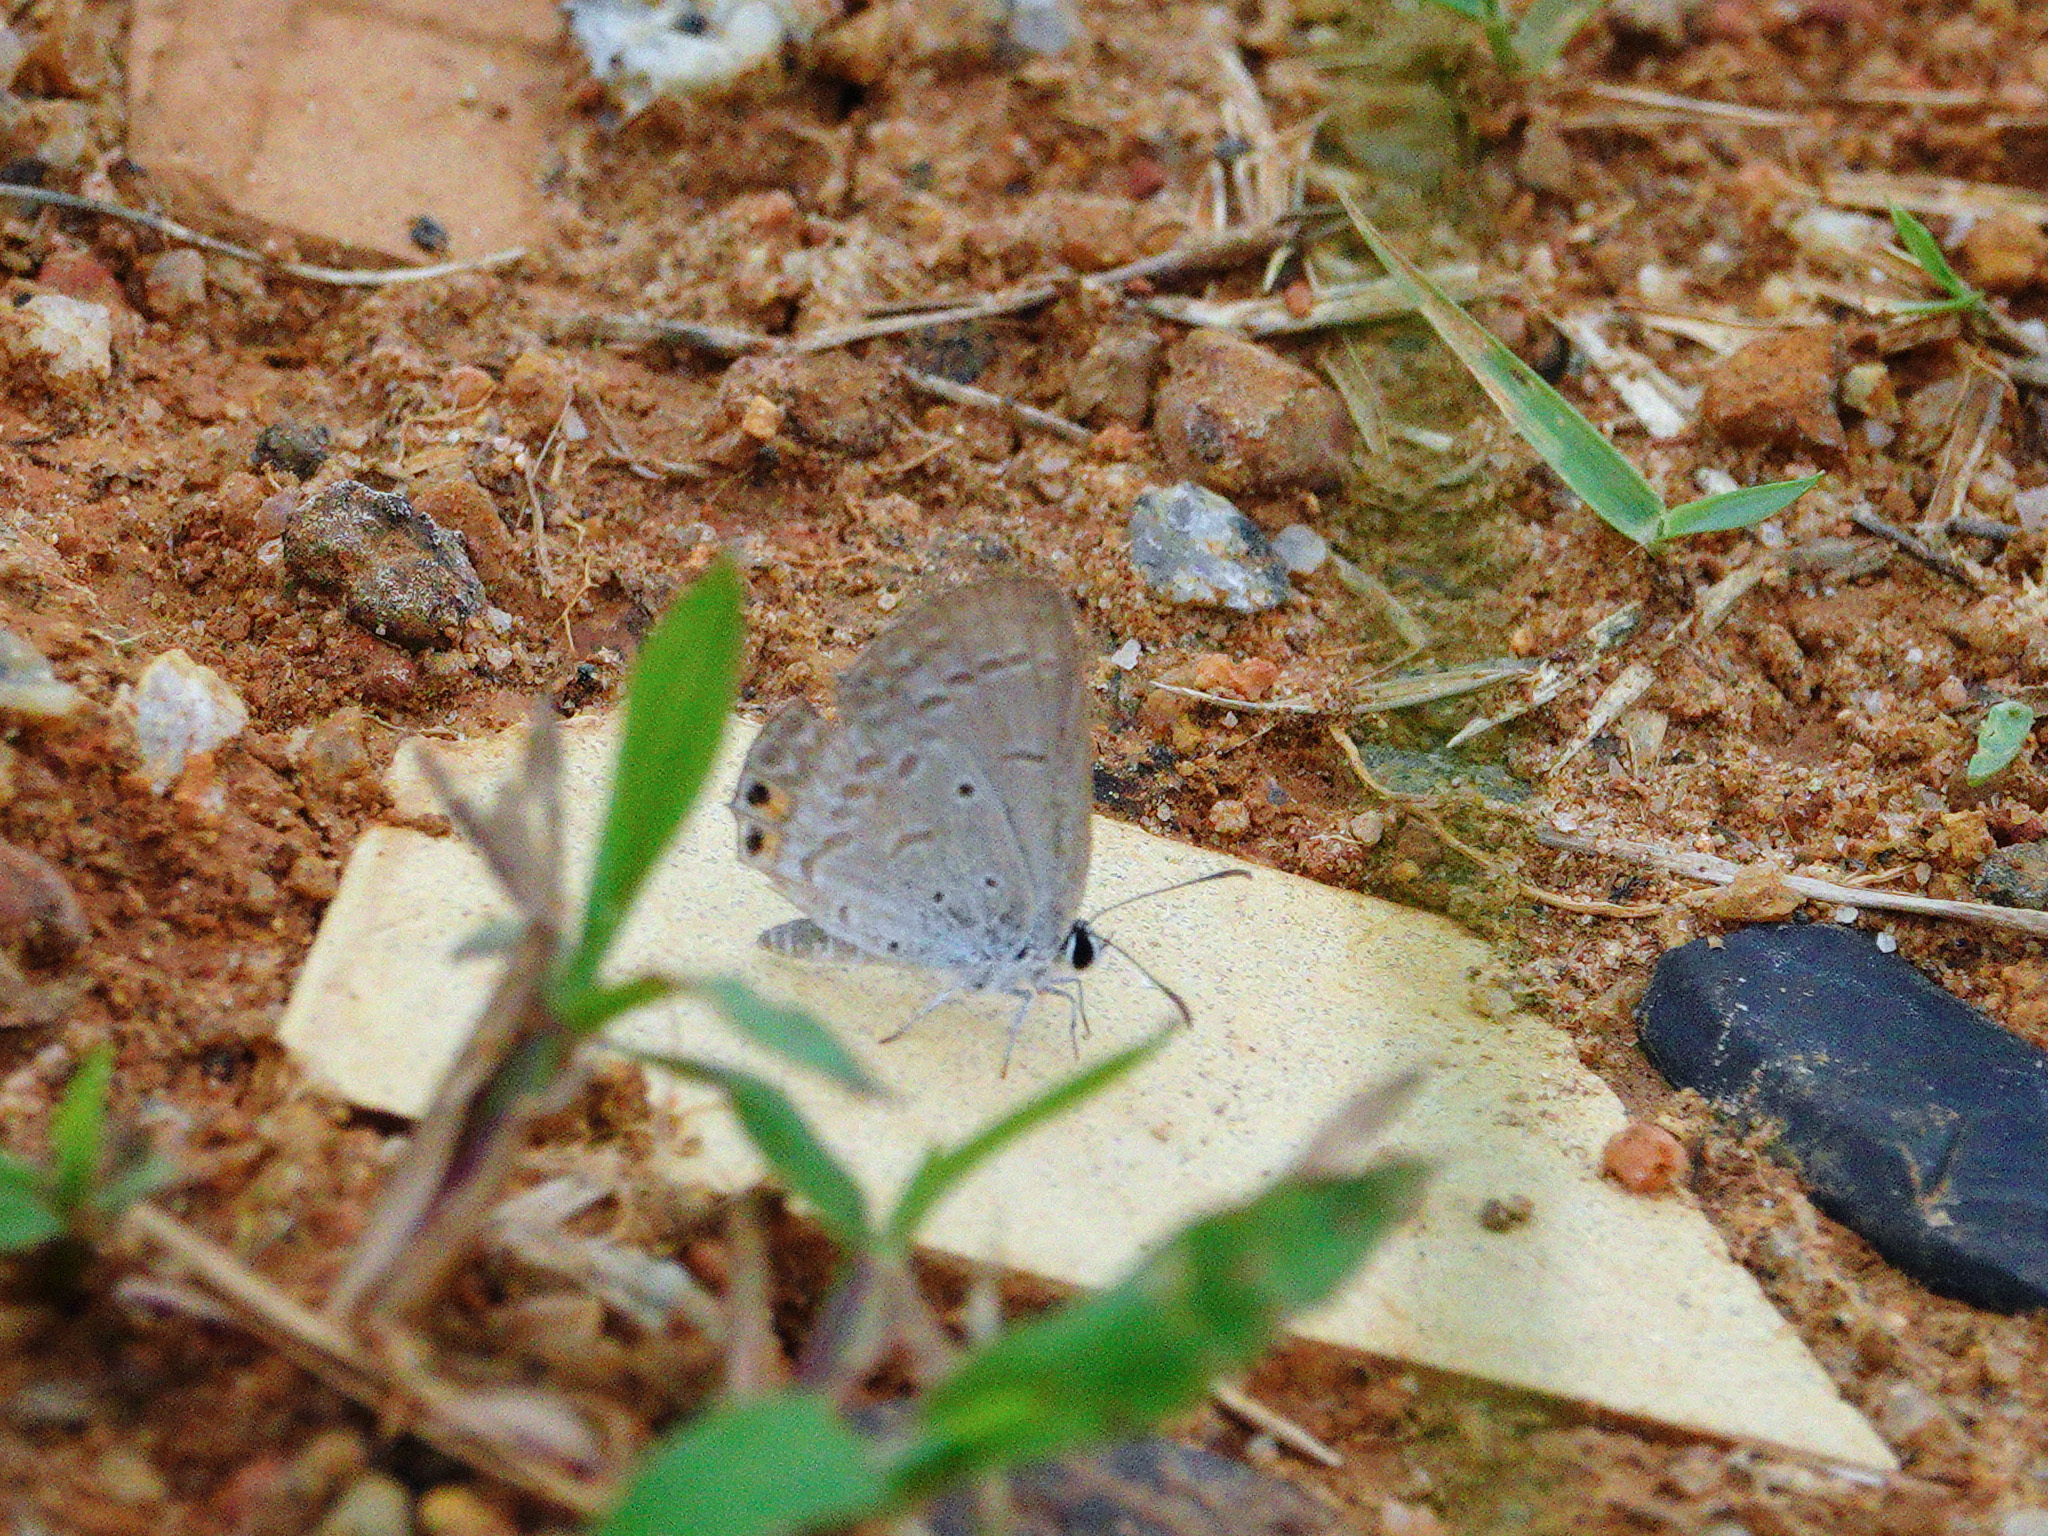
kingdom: Animalia
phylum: Arthropoda
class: Insecta
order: Lepidoptera
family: Lycaenidae
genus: Euchrysops
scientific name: Euchrysops cnejus
